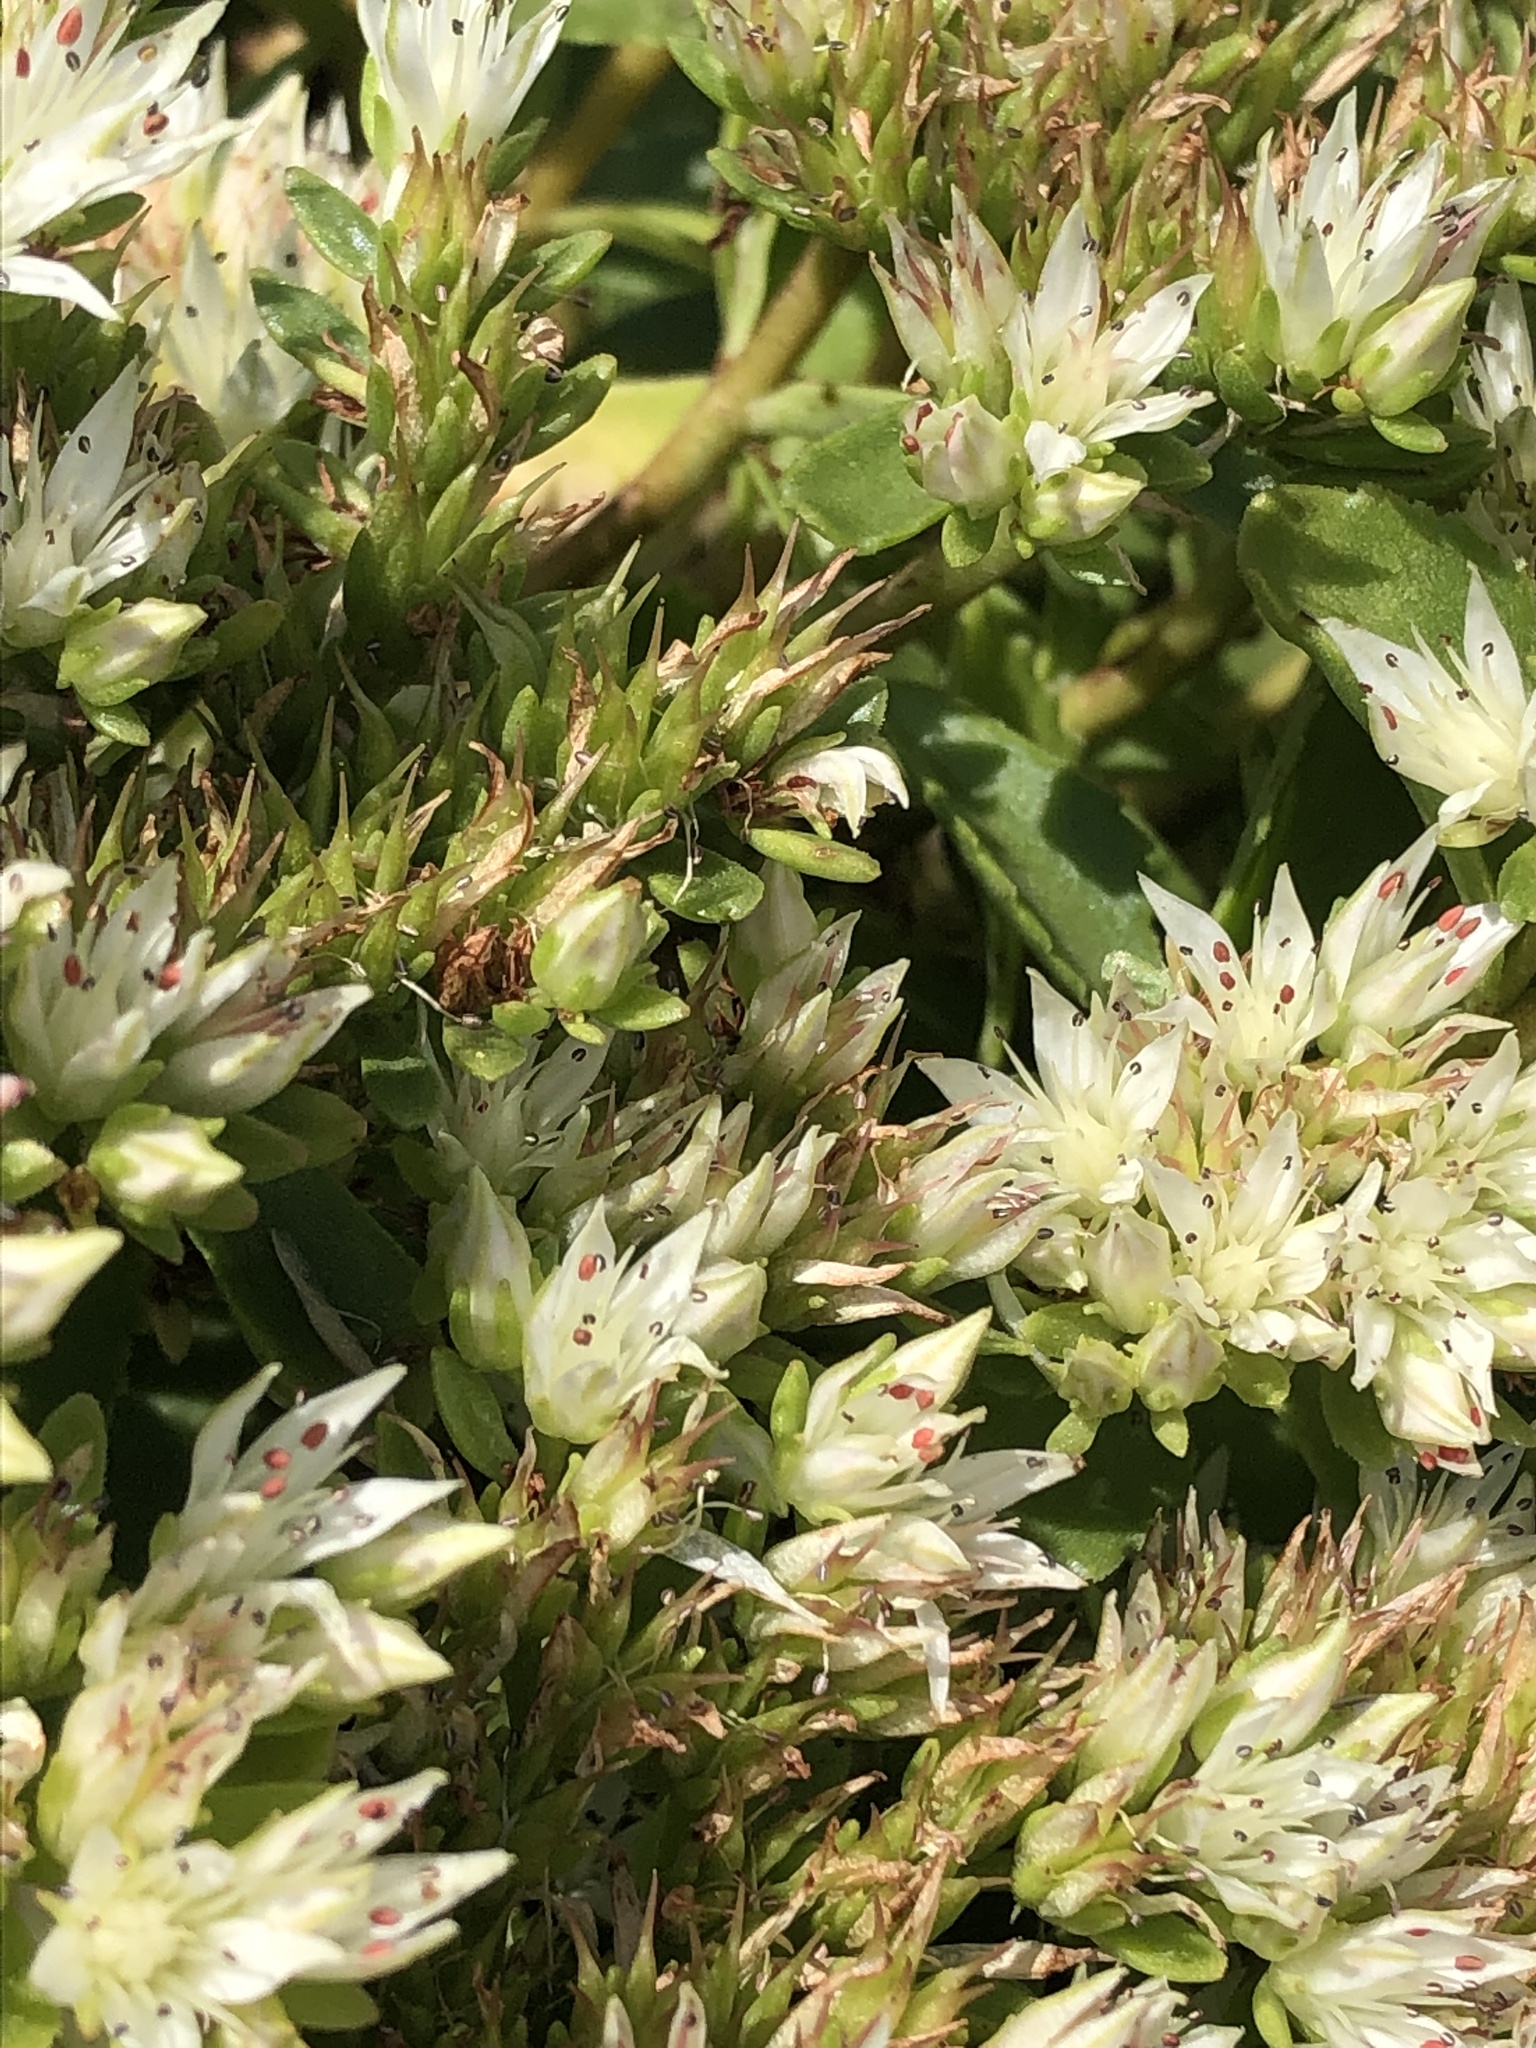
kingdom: Plantae
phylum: Tracheophyta
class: Magnoliopsida
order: Saxifragales
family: Crassulaceae
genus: Phedimus
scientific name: Phedimus spurius
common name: Caucasian stonecrop
